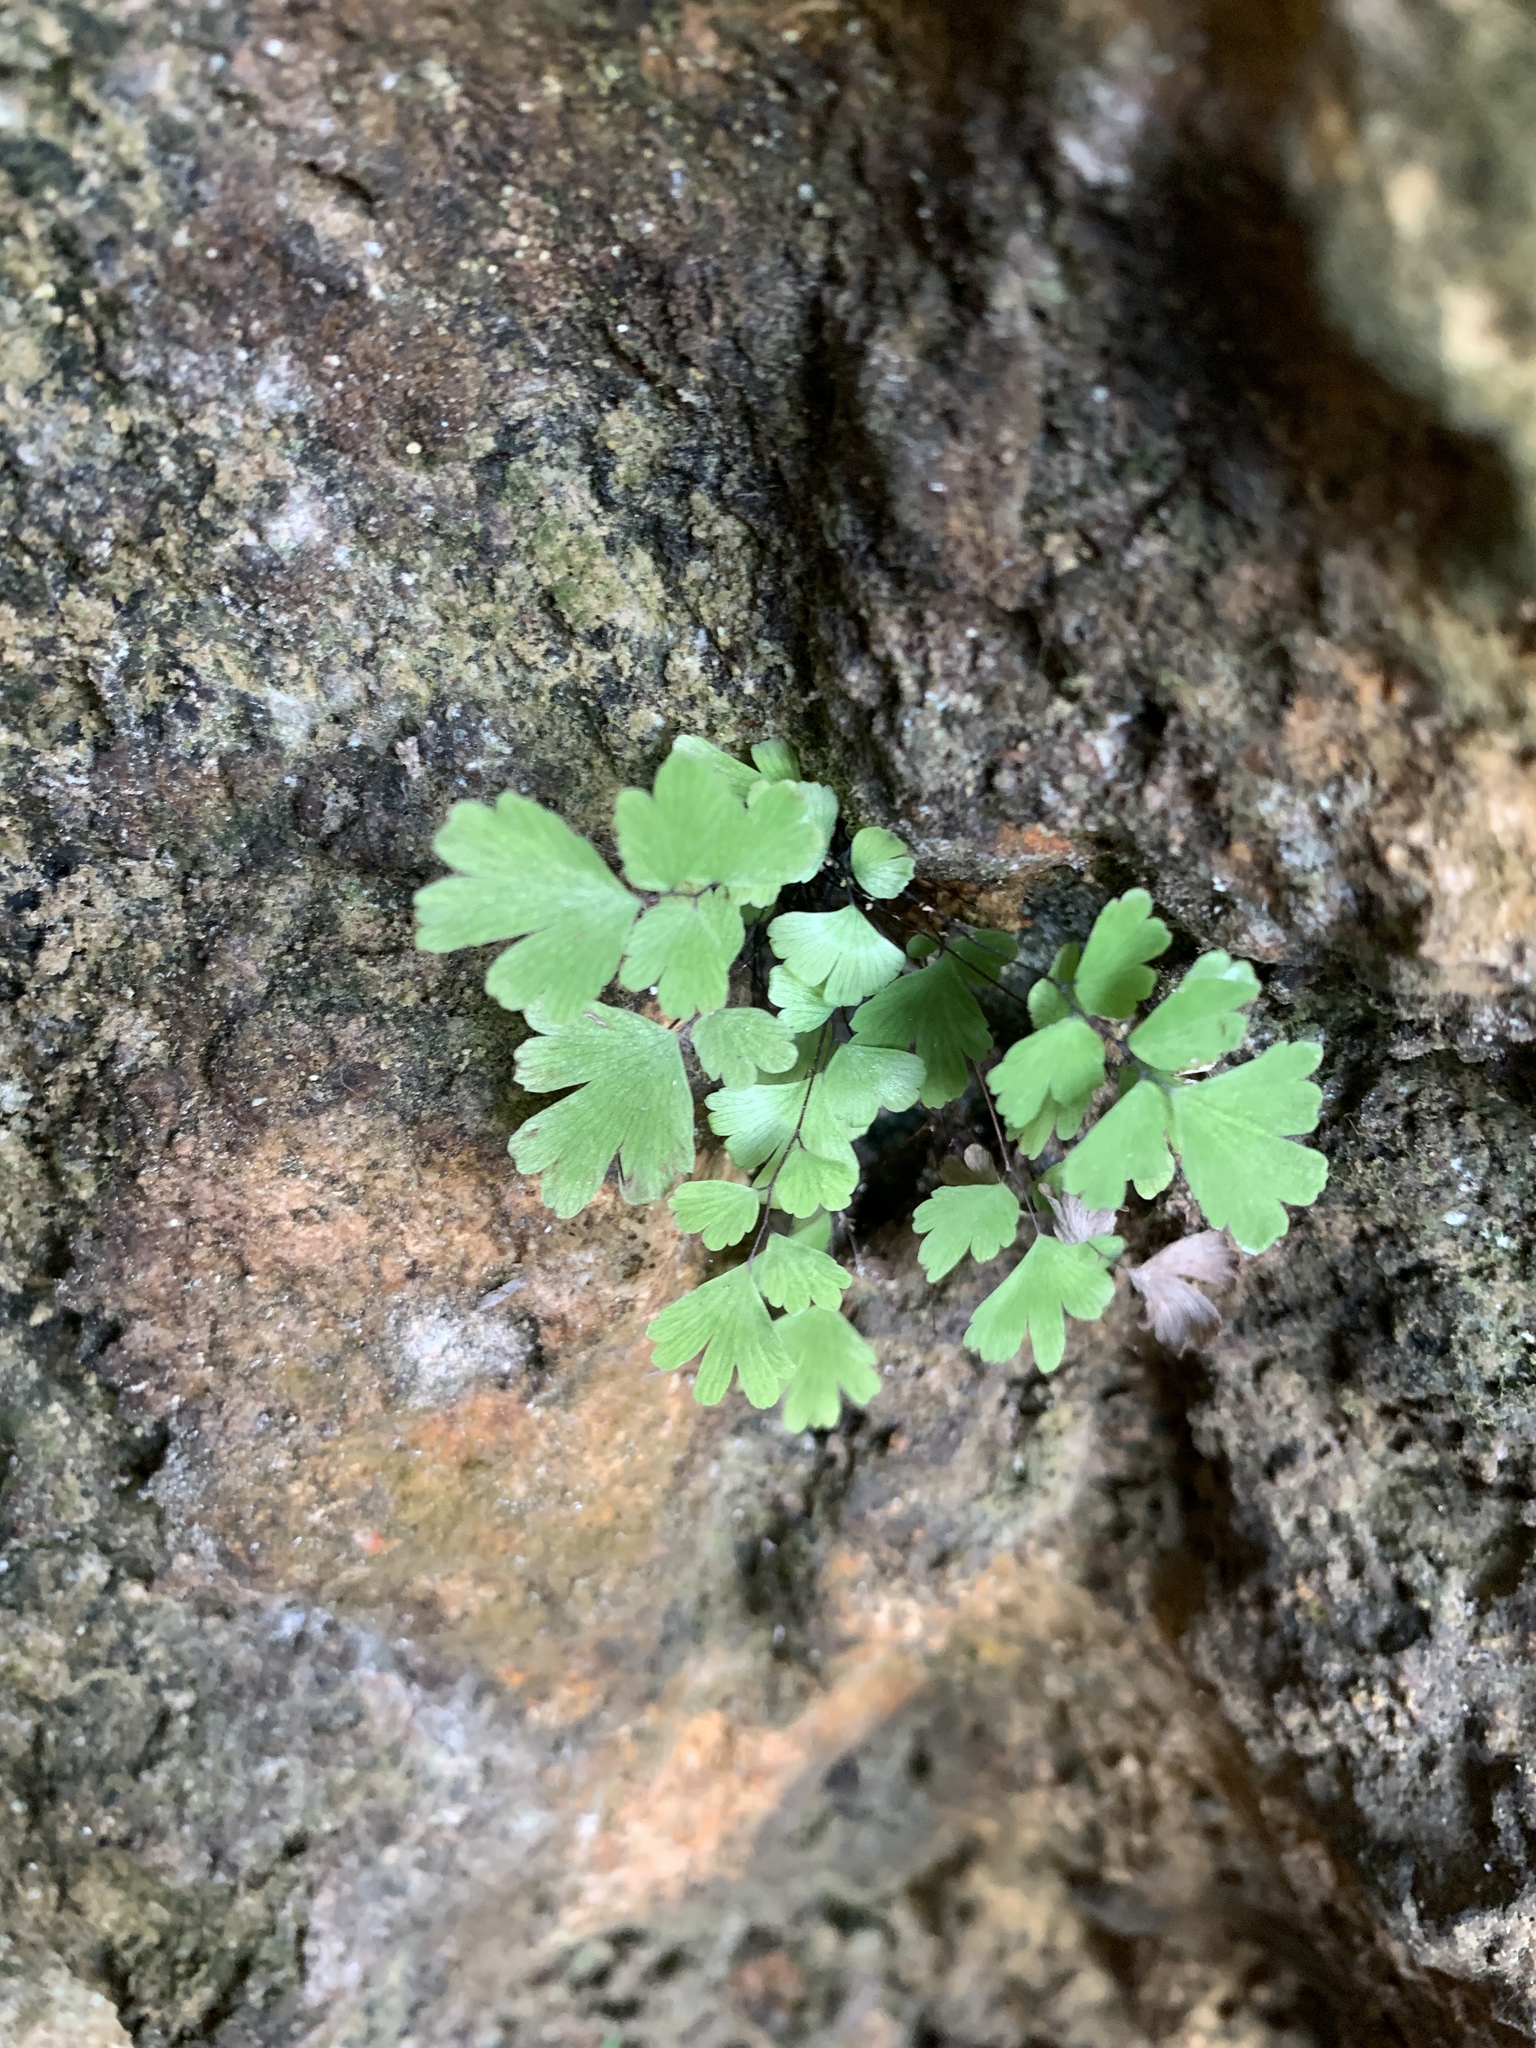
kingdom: Plantae
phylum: Tracheophyta
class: Polypodiopsida
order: Polypodiales
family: Aspleniaceae
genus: Asplenium
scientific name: Asplenium serricula
